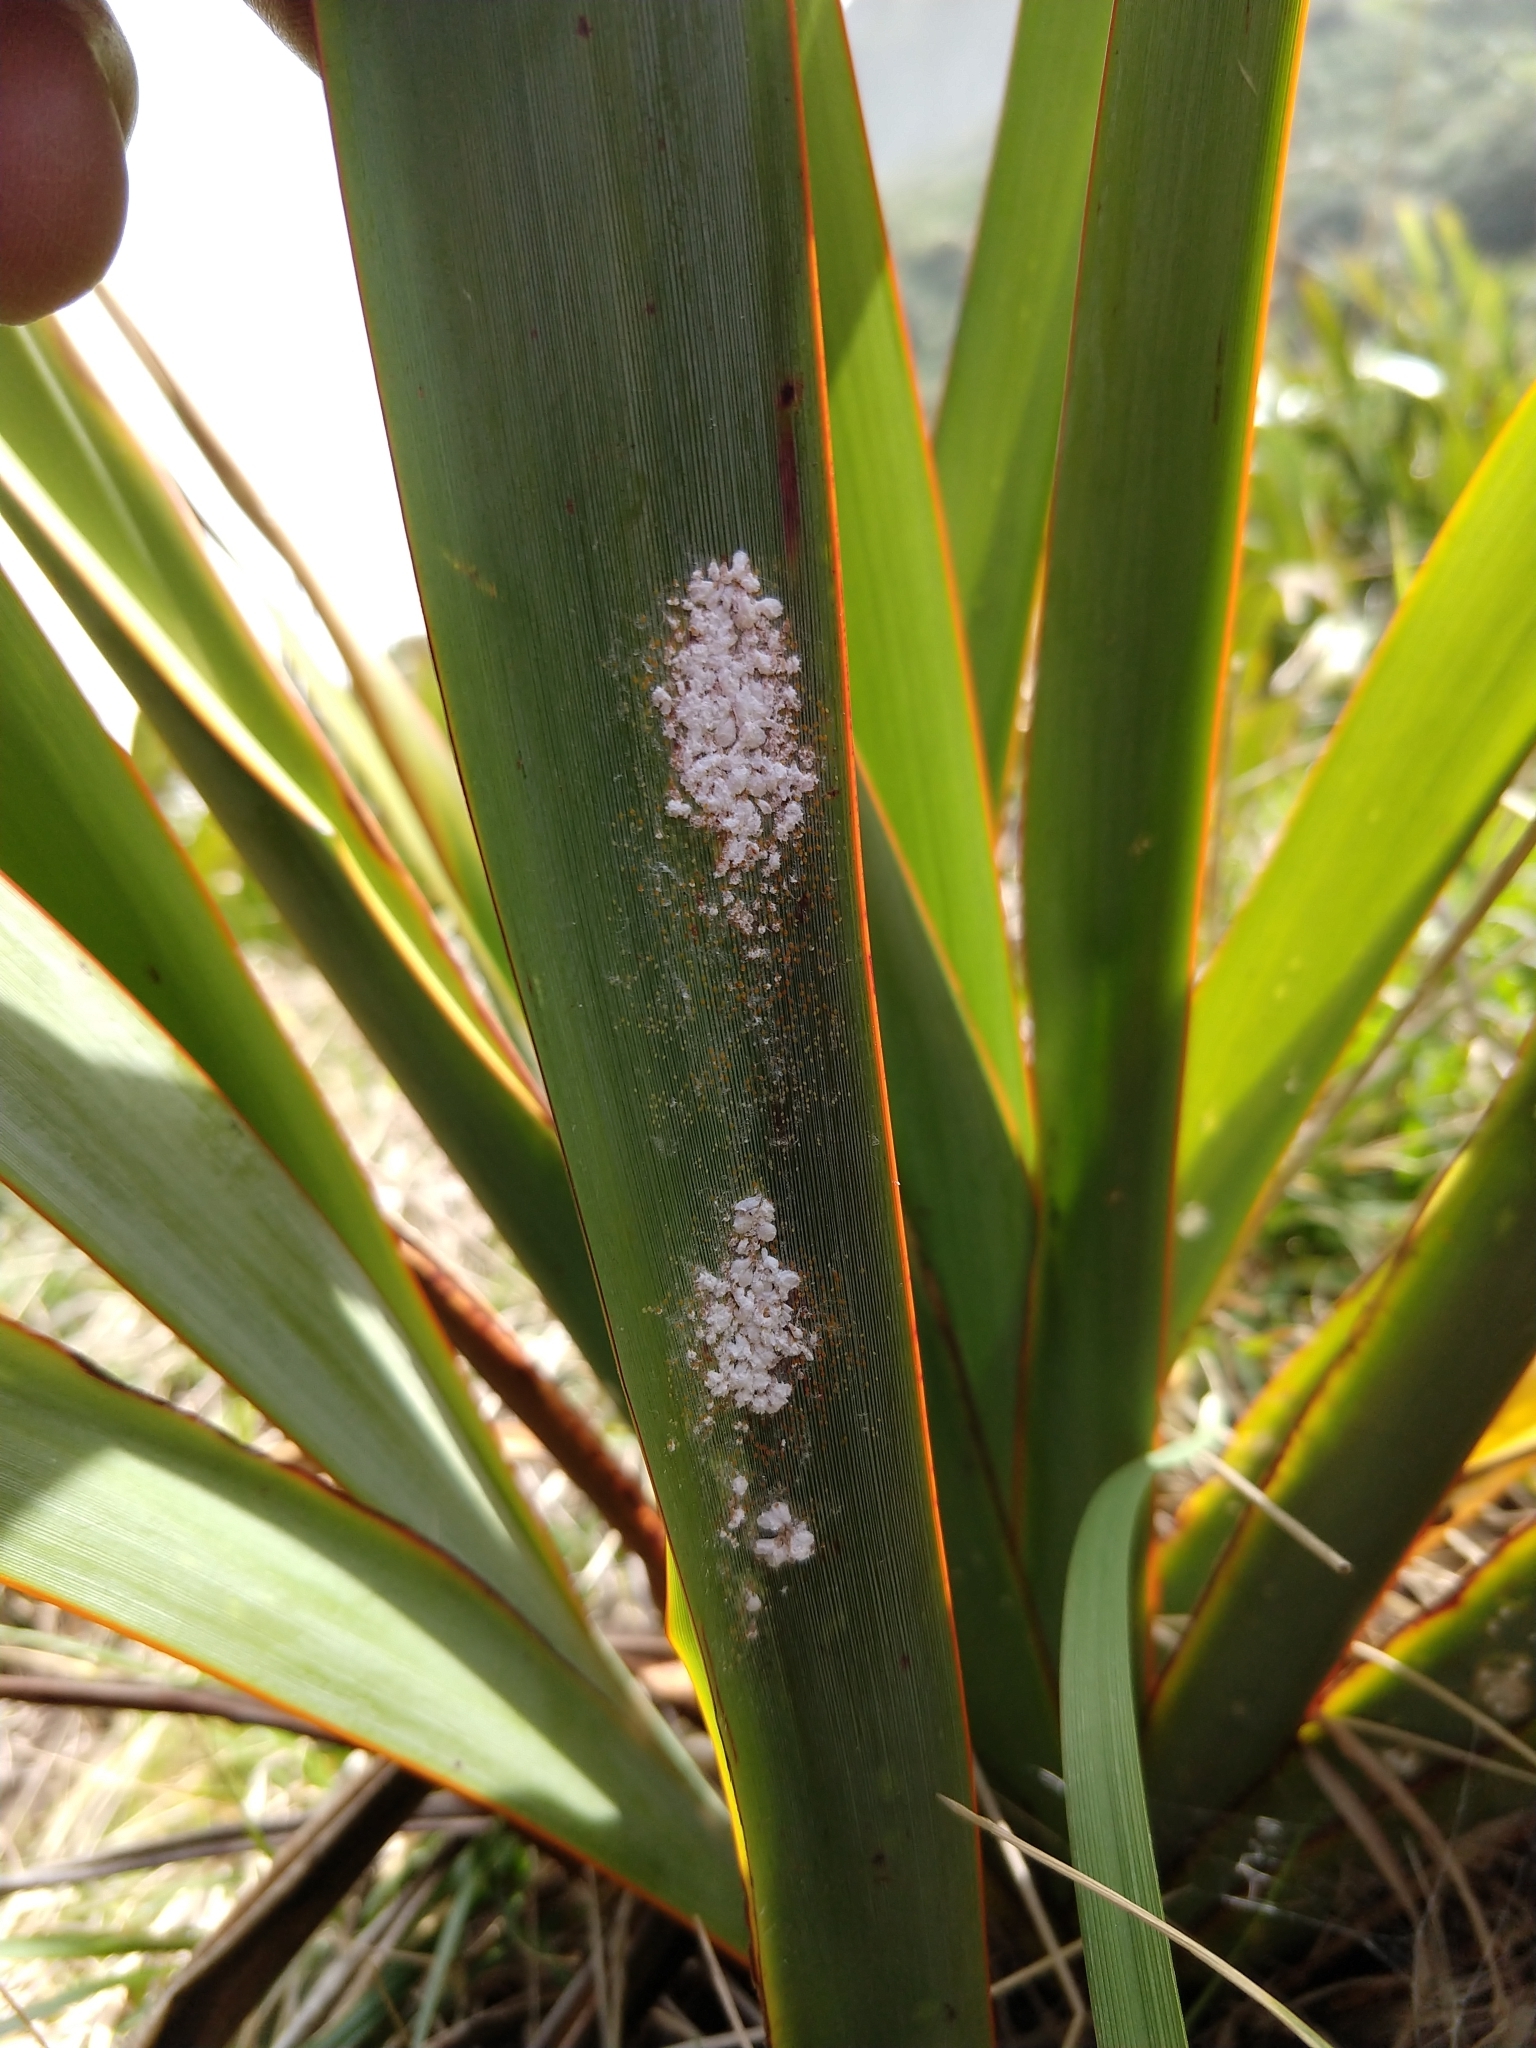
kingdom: Animalia
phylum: Arthropoda
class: Insecta
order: Hemiptera
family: Diaspididae
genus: Poliaspis
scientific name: Poliaspis floccosa
